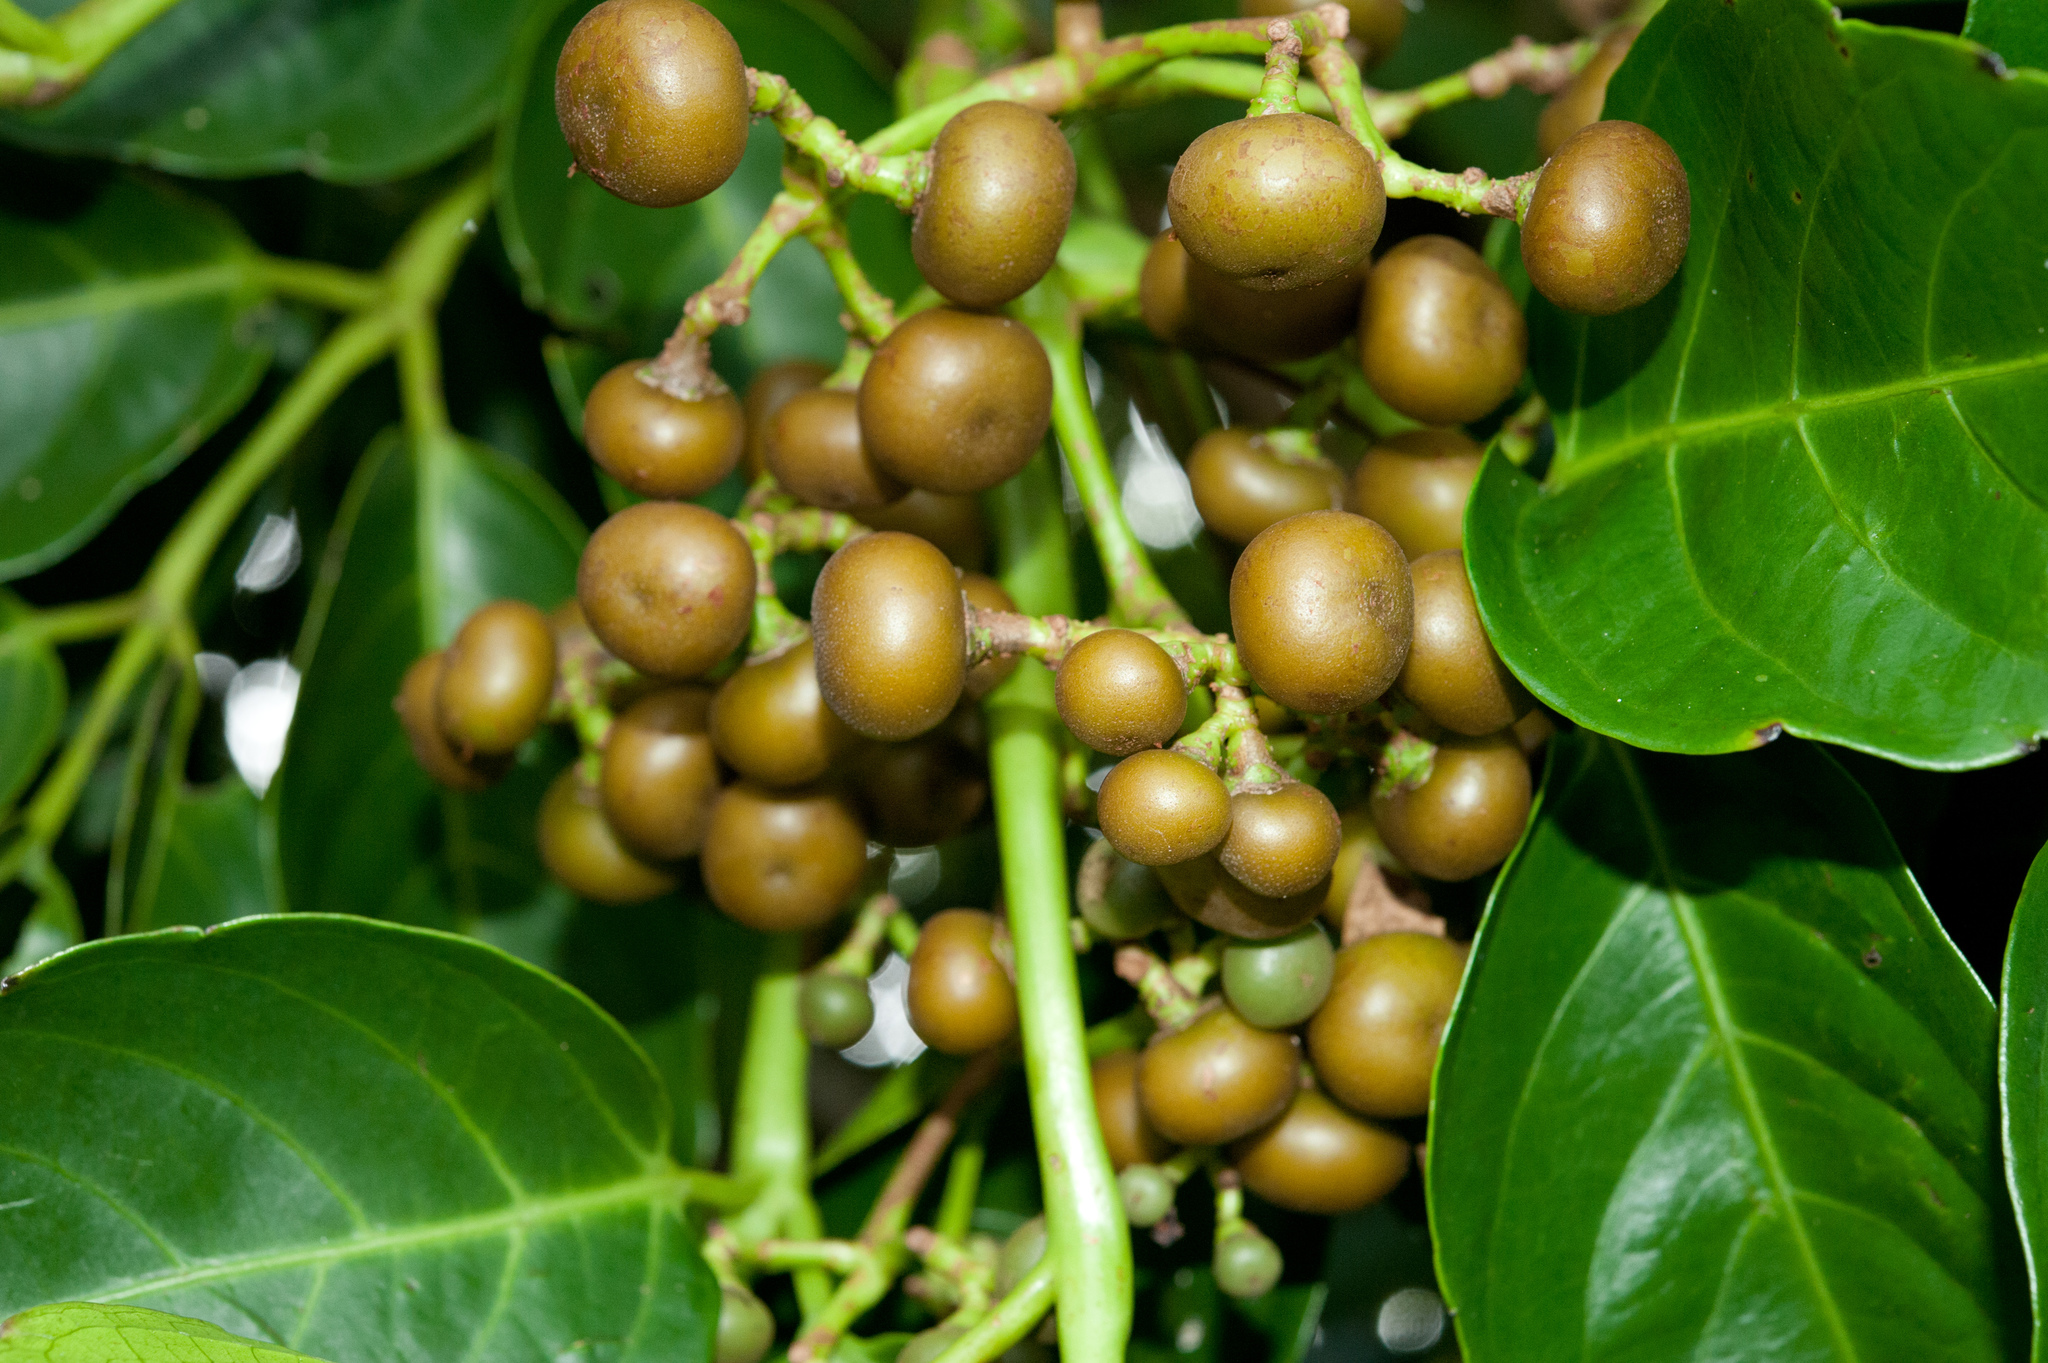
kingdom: Plantae
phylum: Tracheophyta
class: Magnoliopsida
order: Vitales
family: Vitaceae
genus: Leea
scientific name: Leea philippinensis
